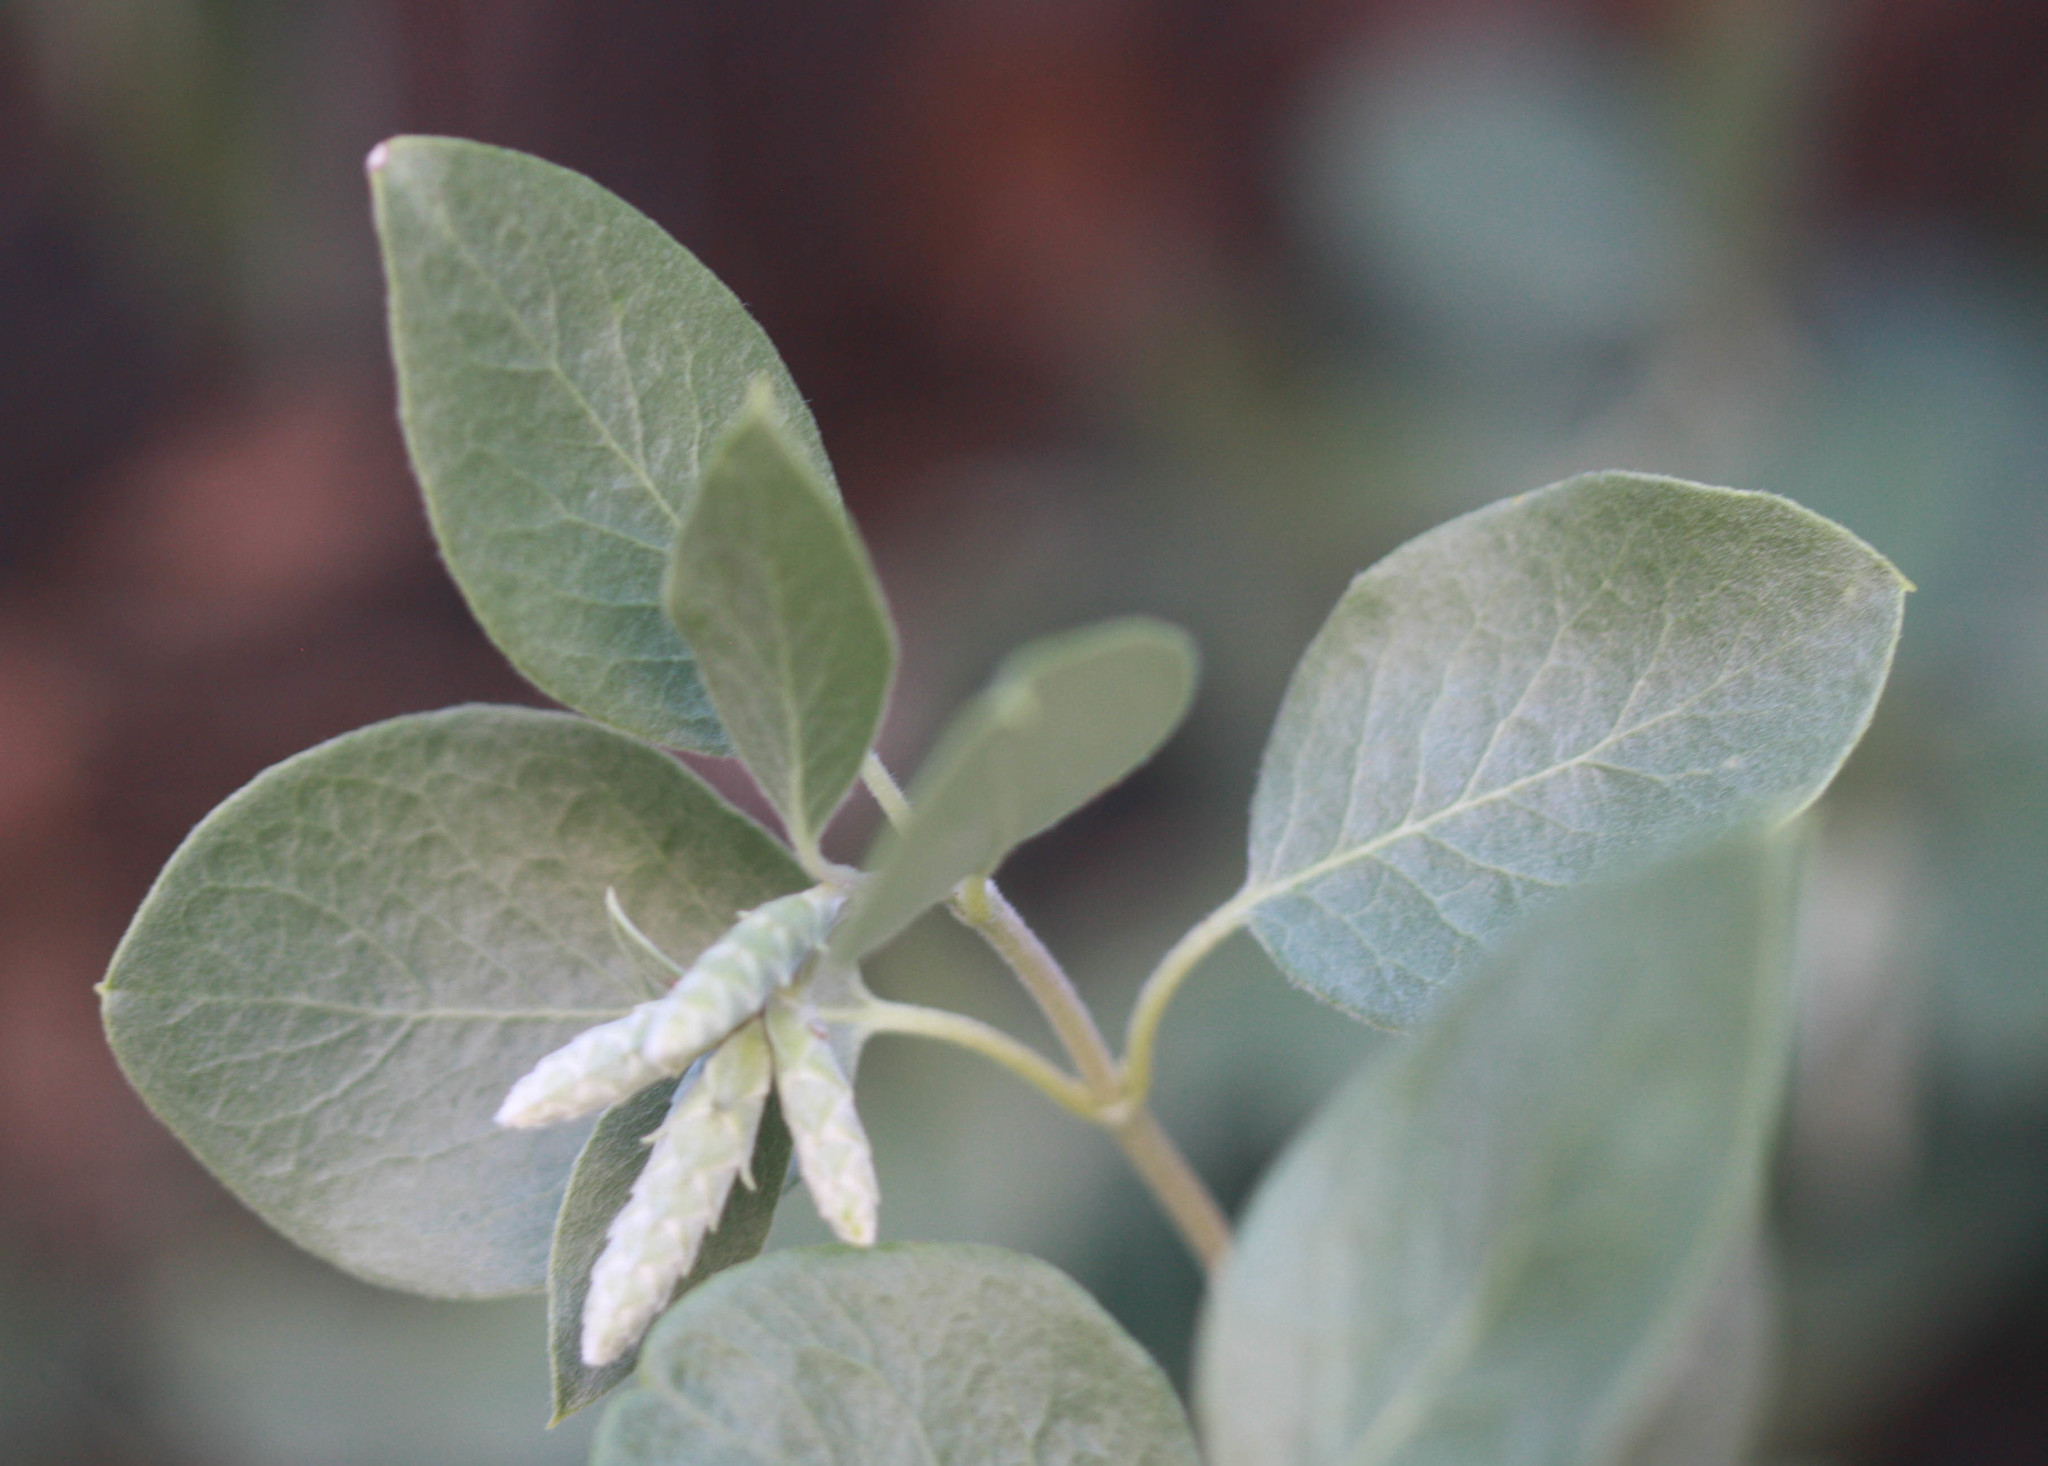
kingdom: Plantae
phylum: Tracheophyta
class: Magnoliopsida
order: Garryales
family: Garryaceae
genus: Garrya
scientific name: Garrya flavescens
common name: Ashy silk-tassel
